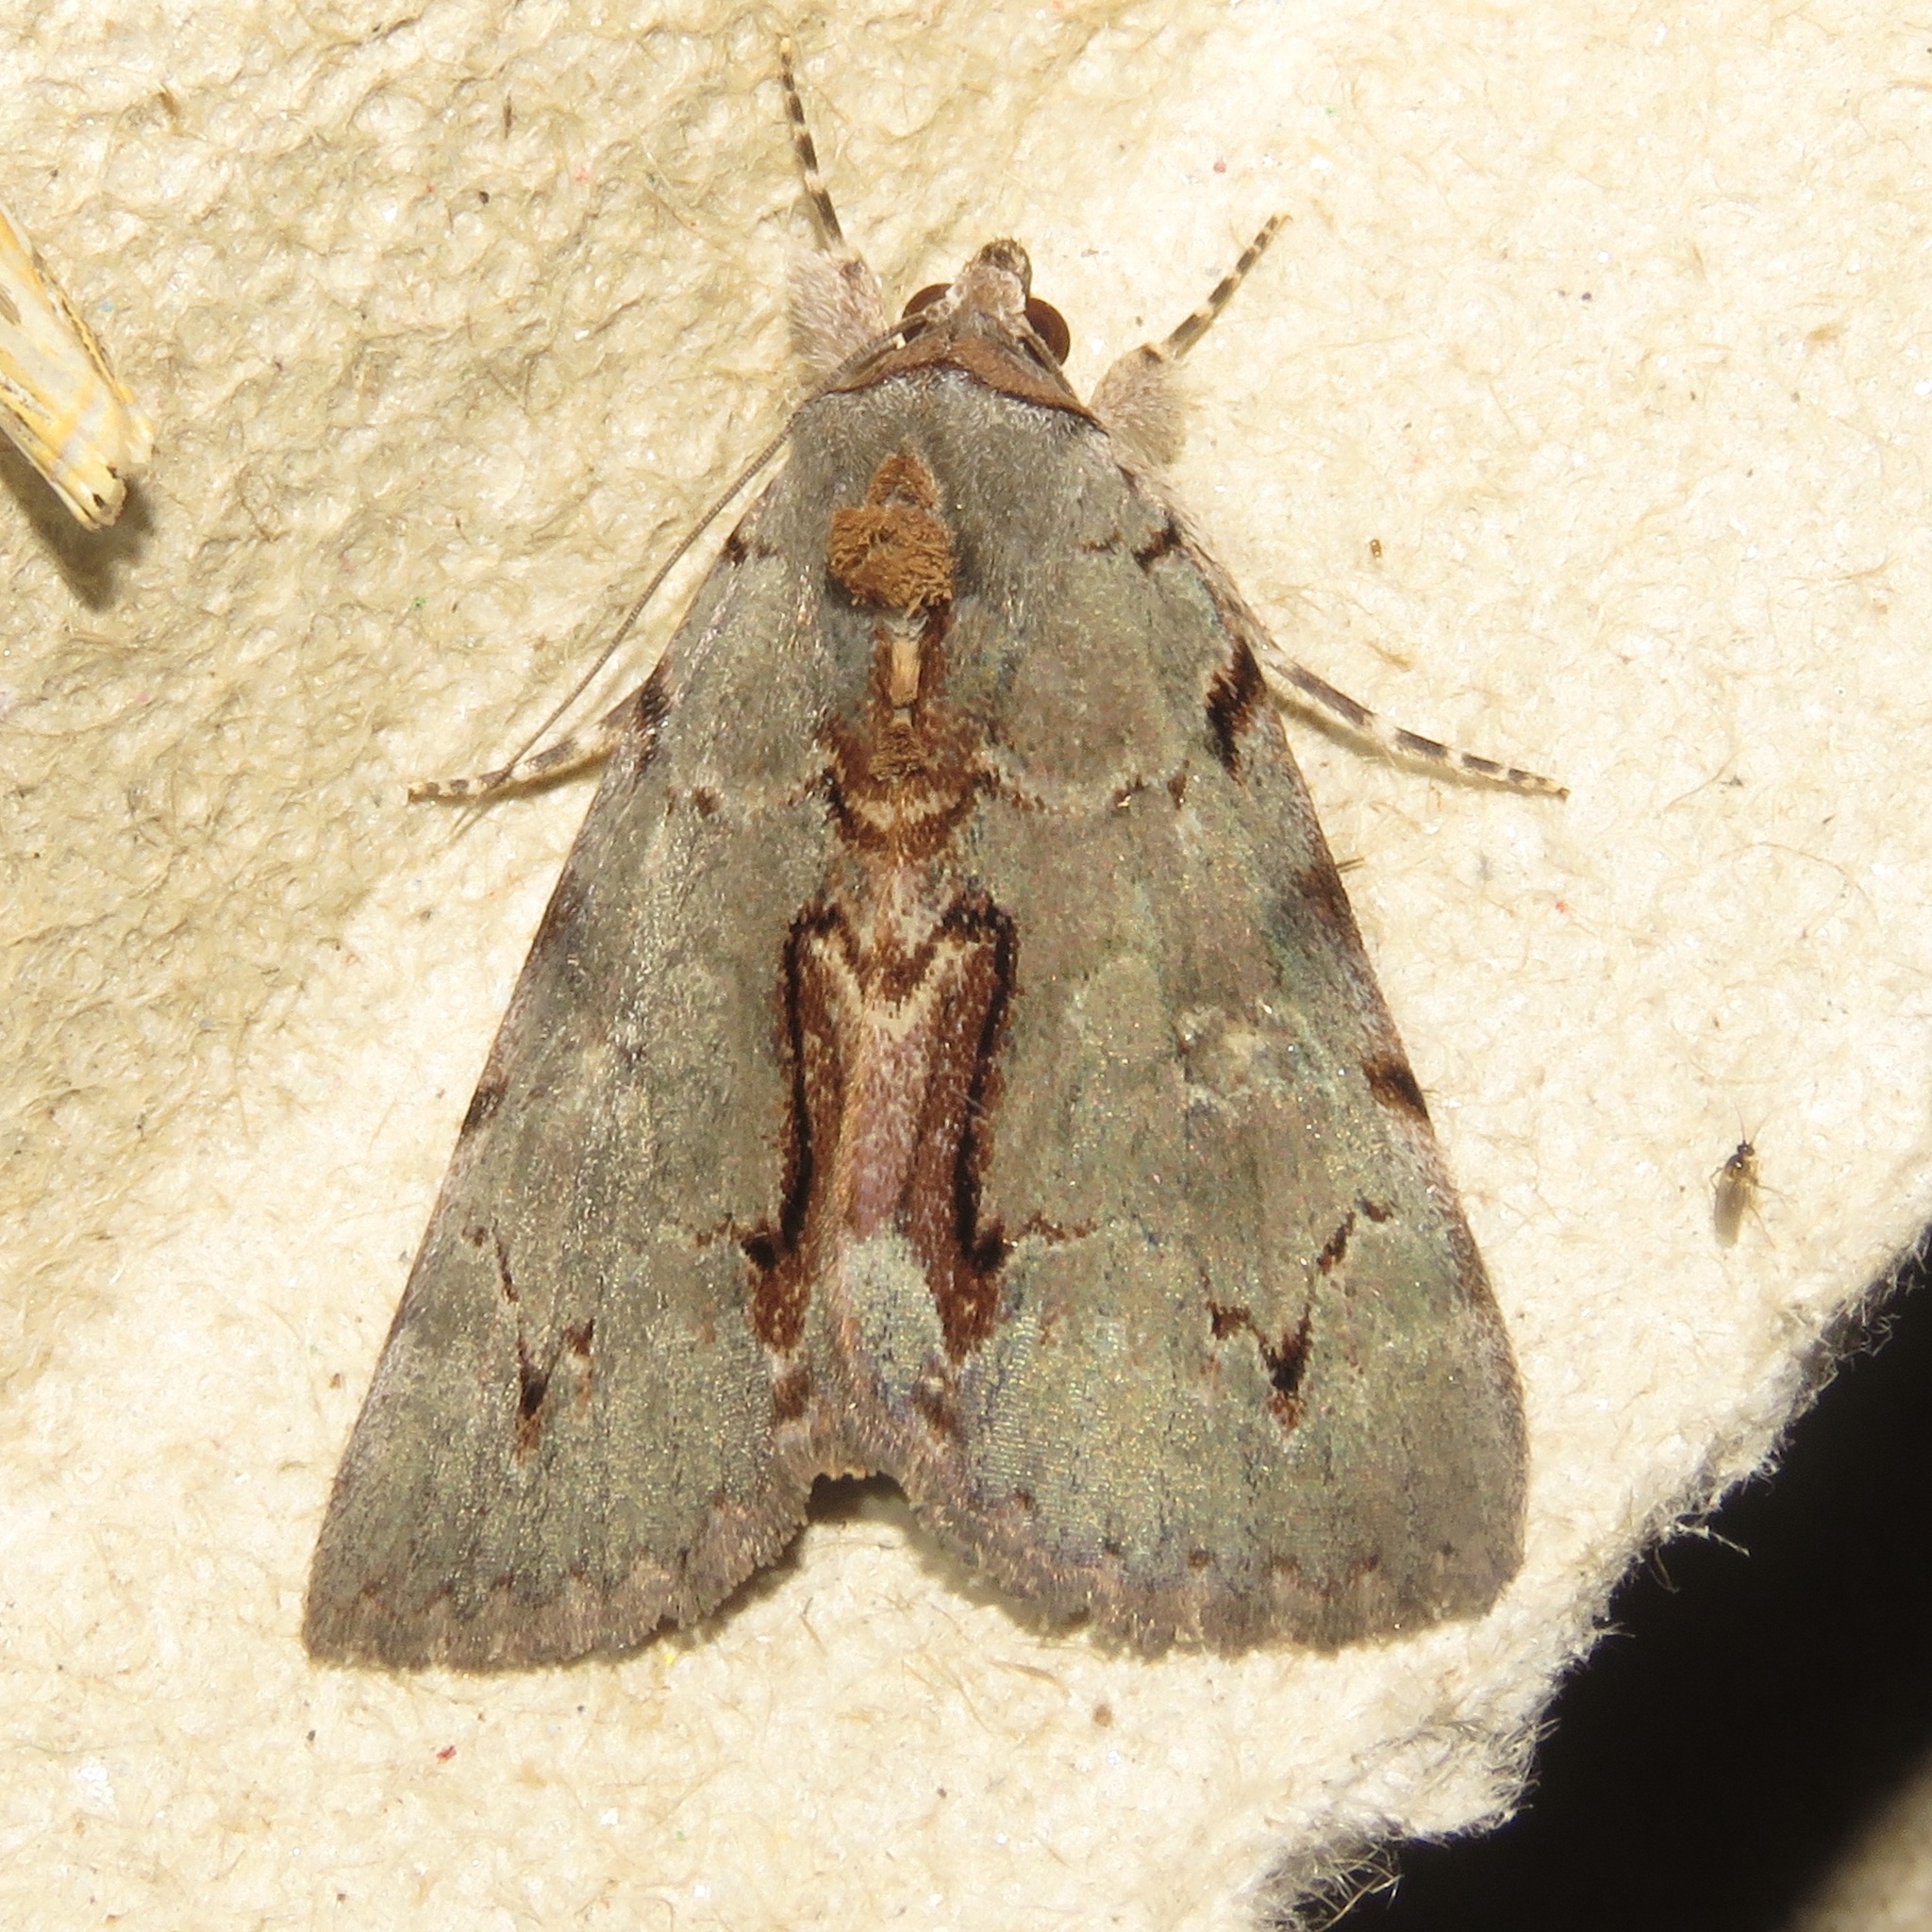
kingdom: Animalia
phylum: Arthropoda
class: Insecta
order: Lepidoptera
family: Erebidae
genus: Catocala
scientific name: Catocala grynea
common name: Woody underwing
